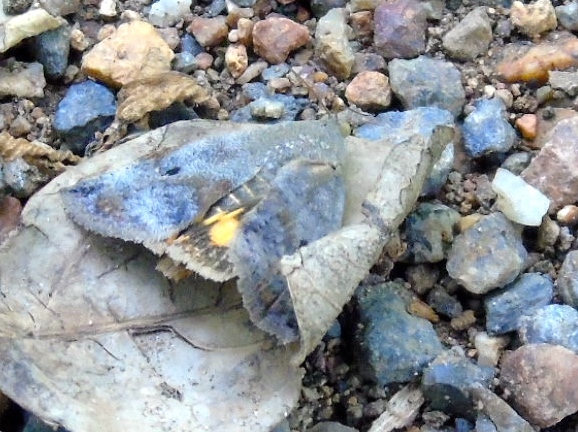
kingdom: Animalia
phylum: Arthropoda
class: Insecta
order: Lepidoptera
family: Hyblaeidae
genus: Hyblaea
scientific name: Hyblaea
